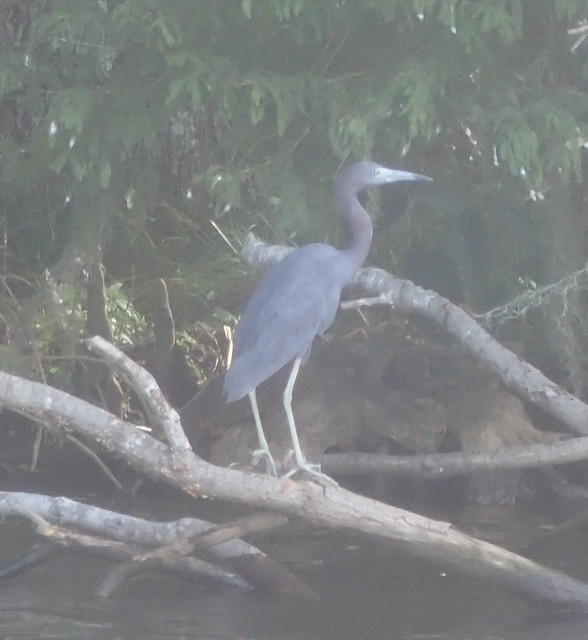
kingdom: Animalia
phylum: Chordata
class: Aves
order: Pelecaniformes
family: Ardeidae
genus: Egretta
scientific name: Egretta caerulea
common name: Little blue heron
